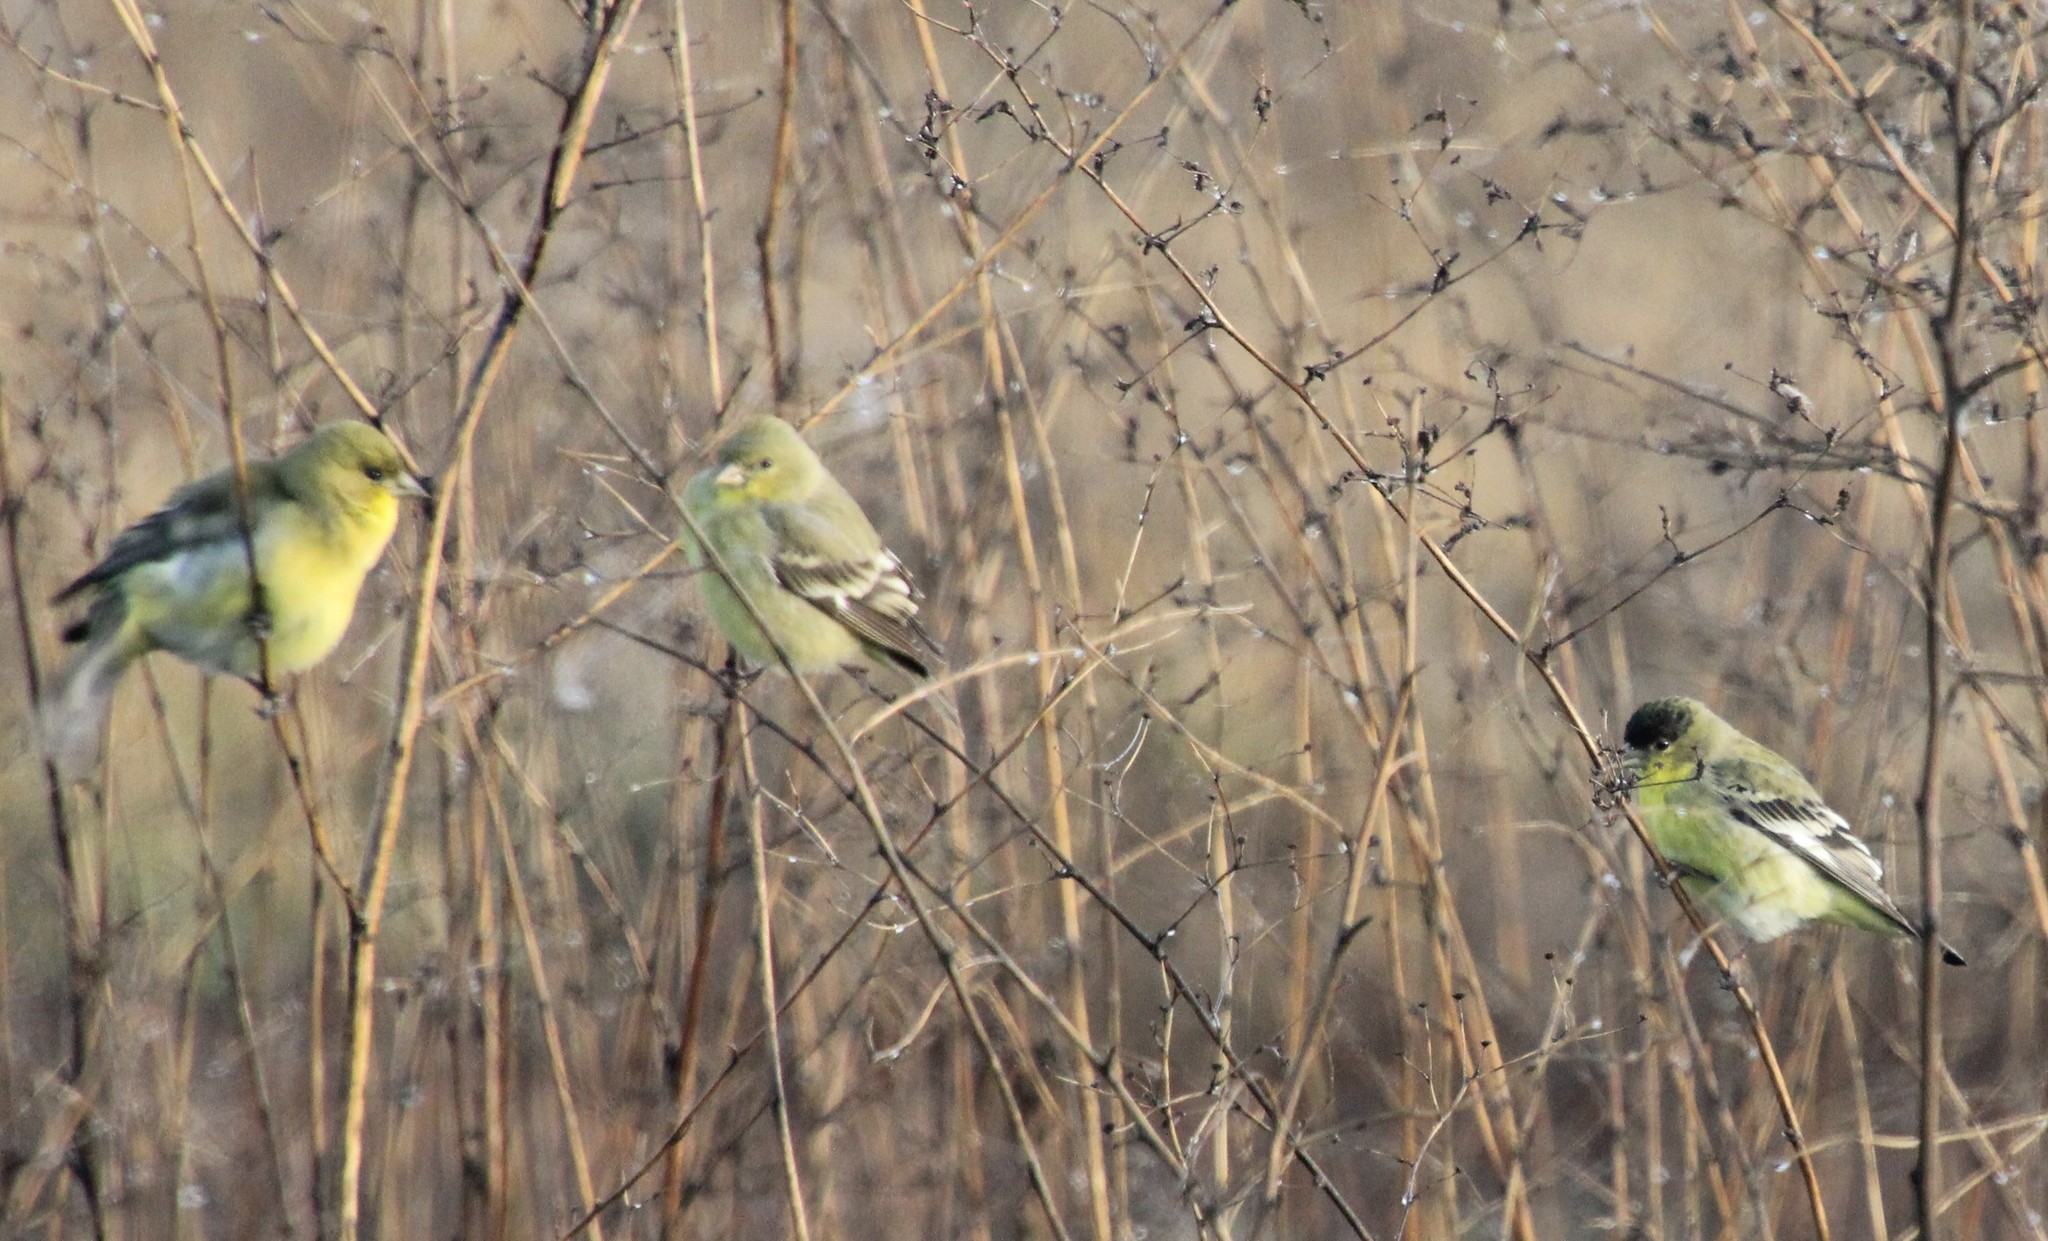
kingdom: Animalia
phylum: Chordata
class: Aves
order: Passeriformes
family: Fringillidae
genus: Spinus
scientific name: Spinus psaltria
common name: Lesser goldfinch
